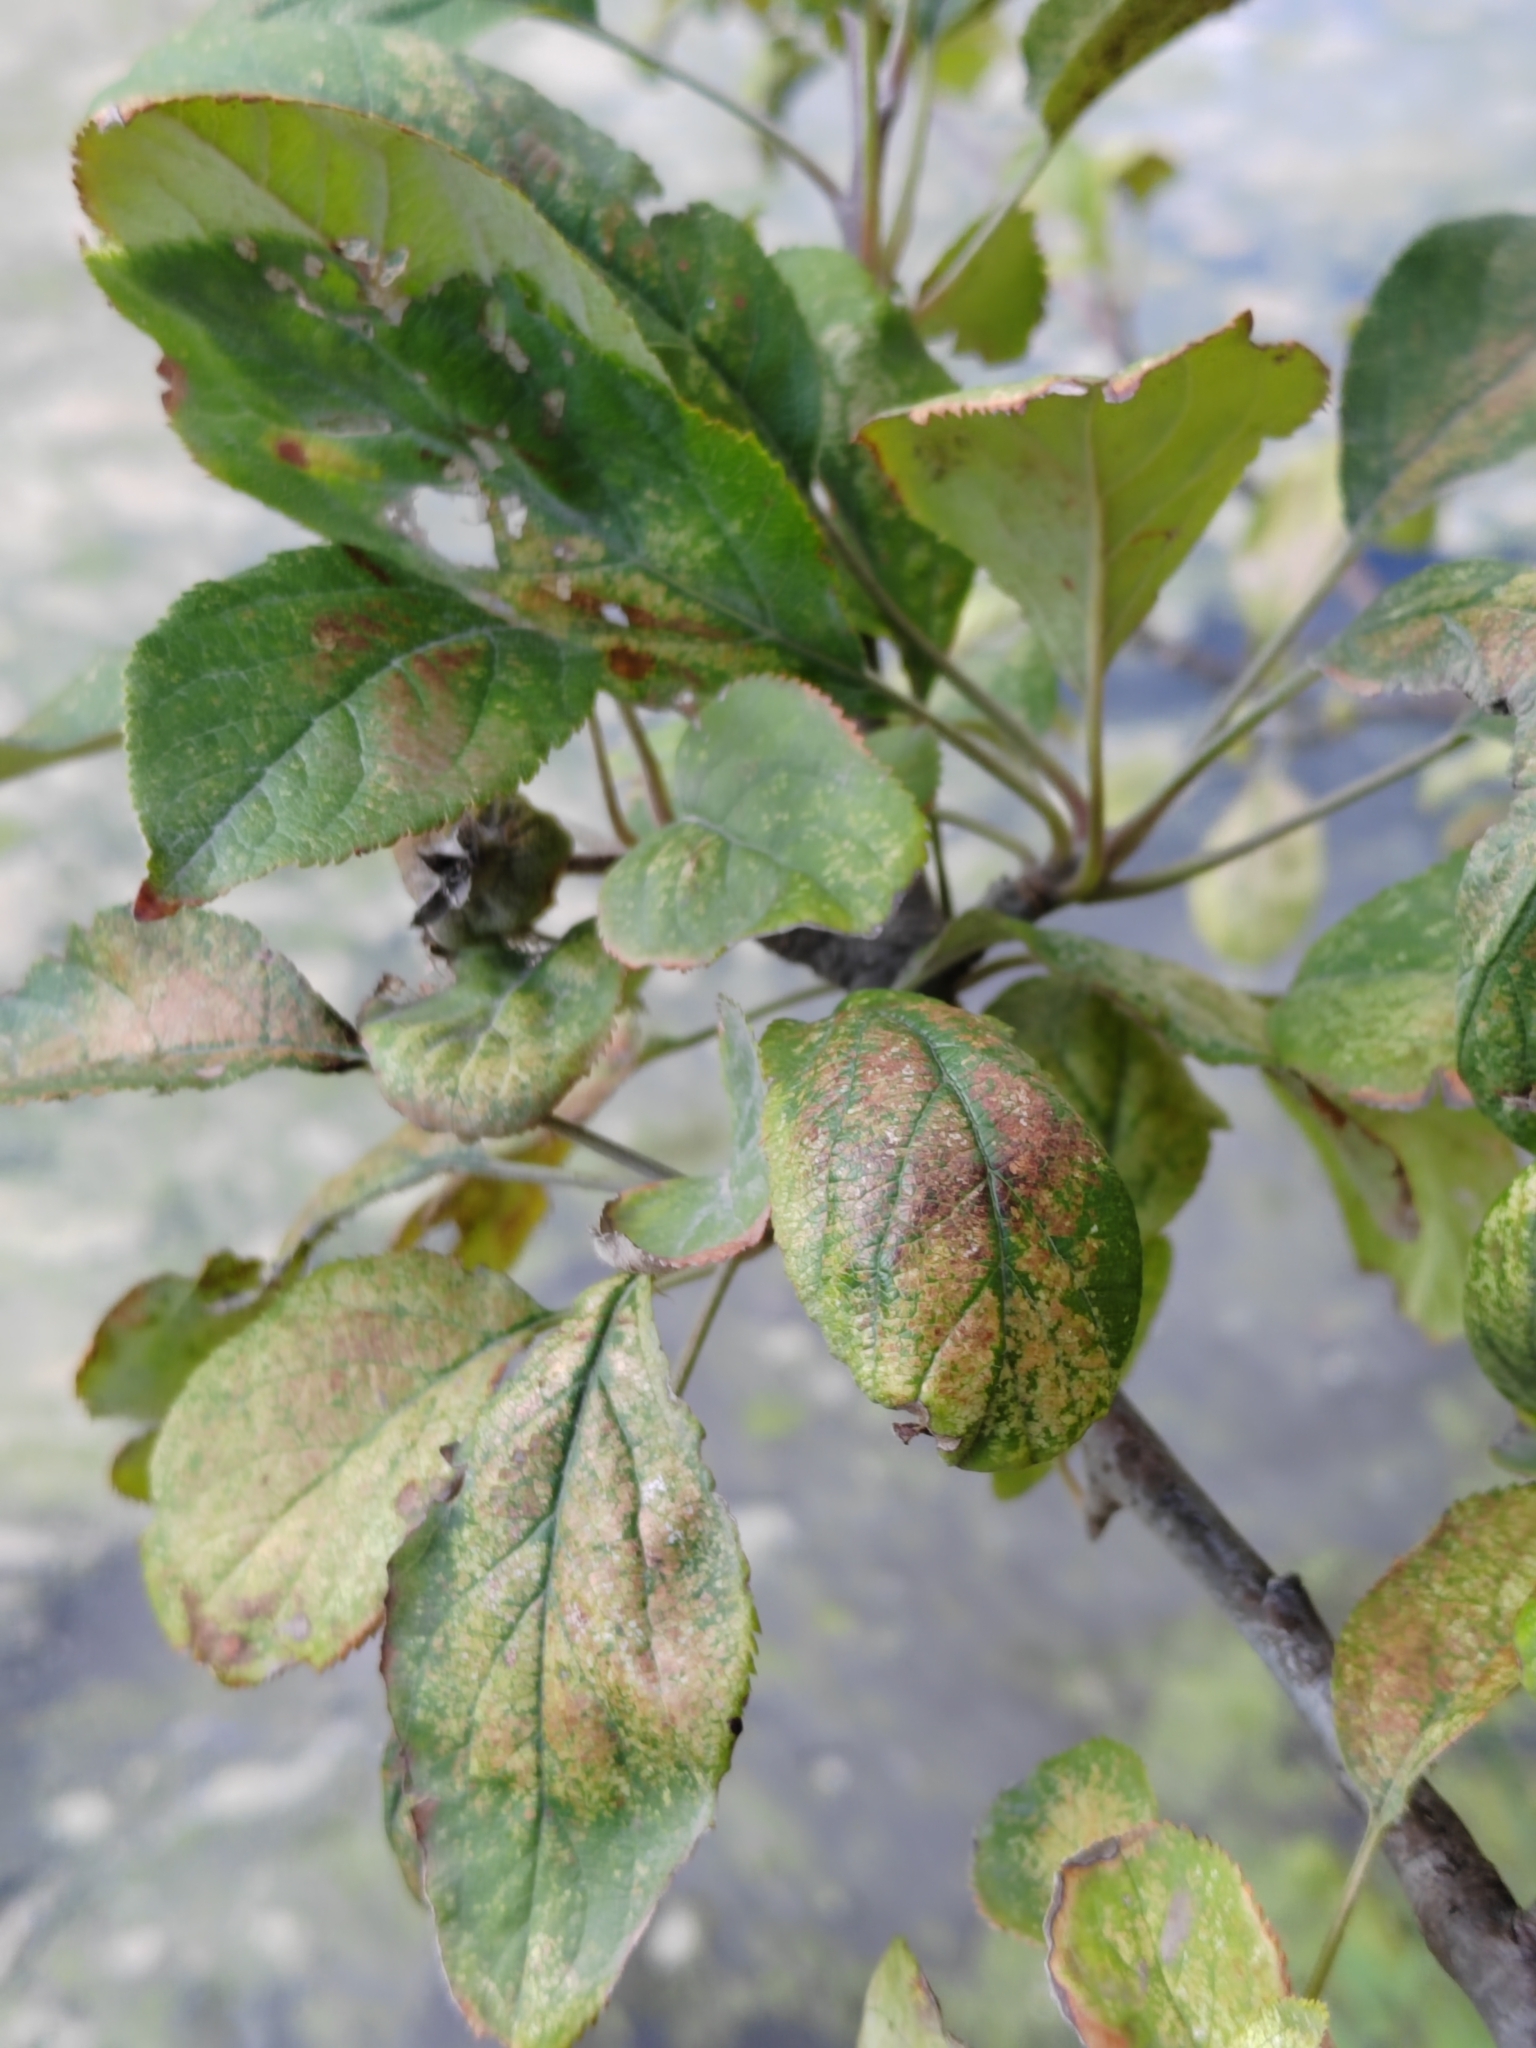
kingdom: Plantae
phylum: Tracheophyta
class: Magnoliopsida
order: Rosales
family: Rosaceae
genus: Malus
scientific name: Malus domestica
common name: Apple
